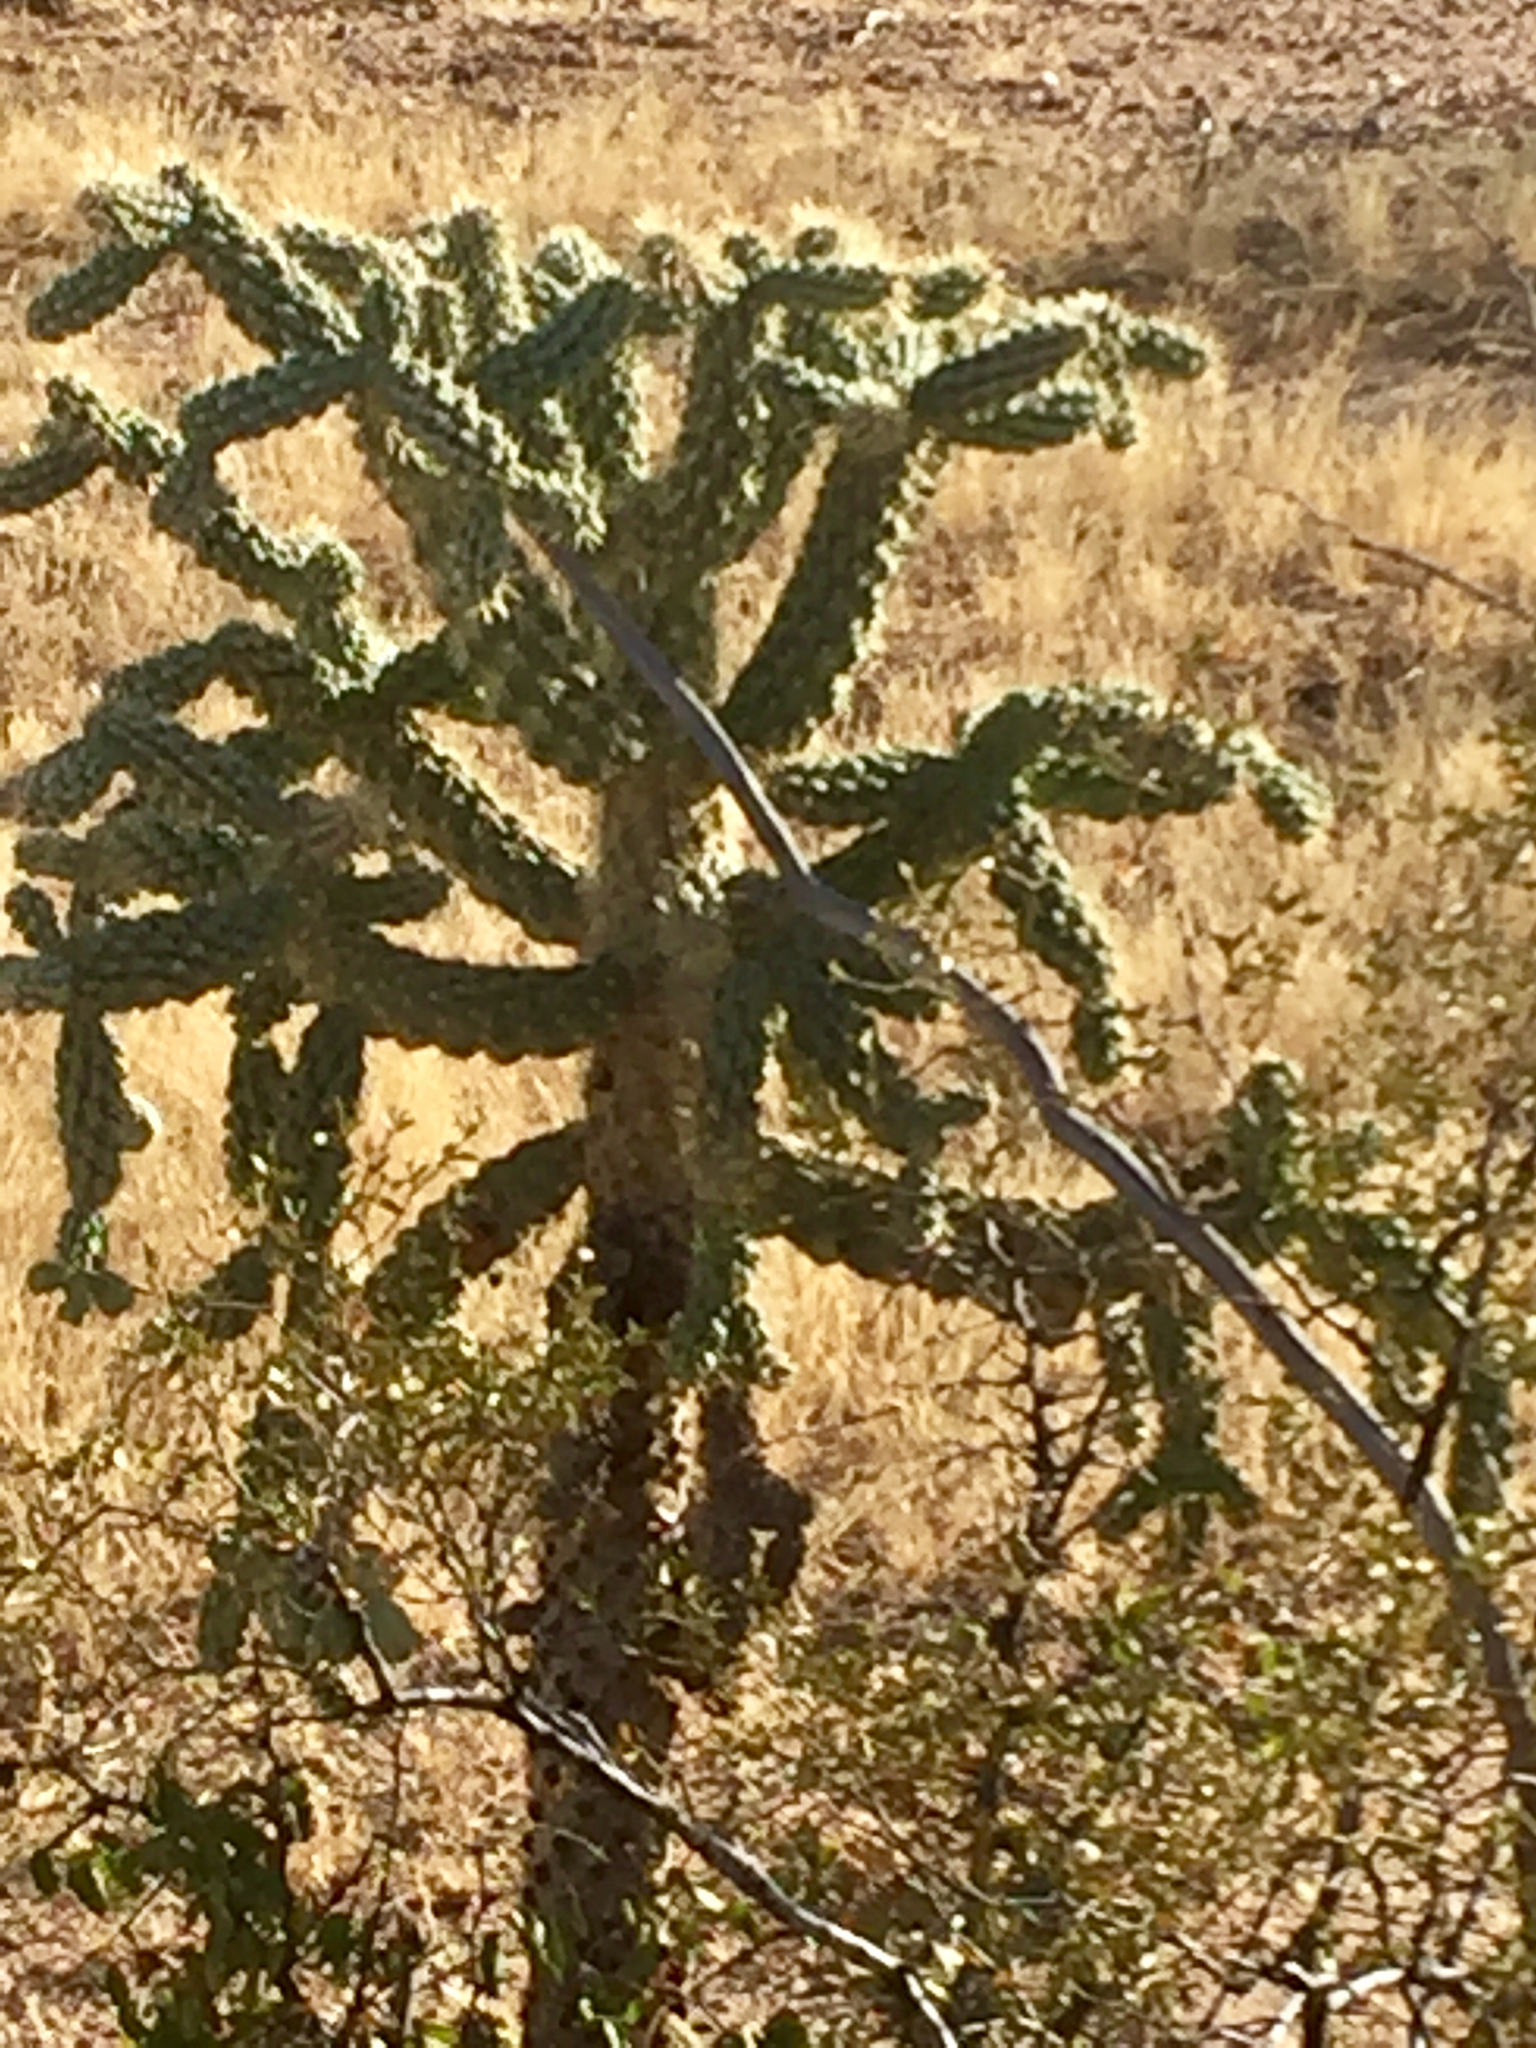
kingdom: Plantae
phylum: Tracheophyta
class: Magnoliopsida
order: Caryophyllales
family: Cactaceae
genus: Cylindropuntia
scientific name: Cylindropuntia imbricata
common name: Candelabrum cactus
